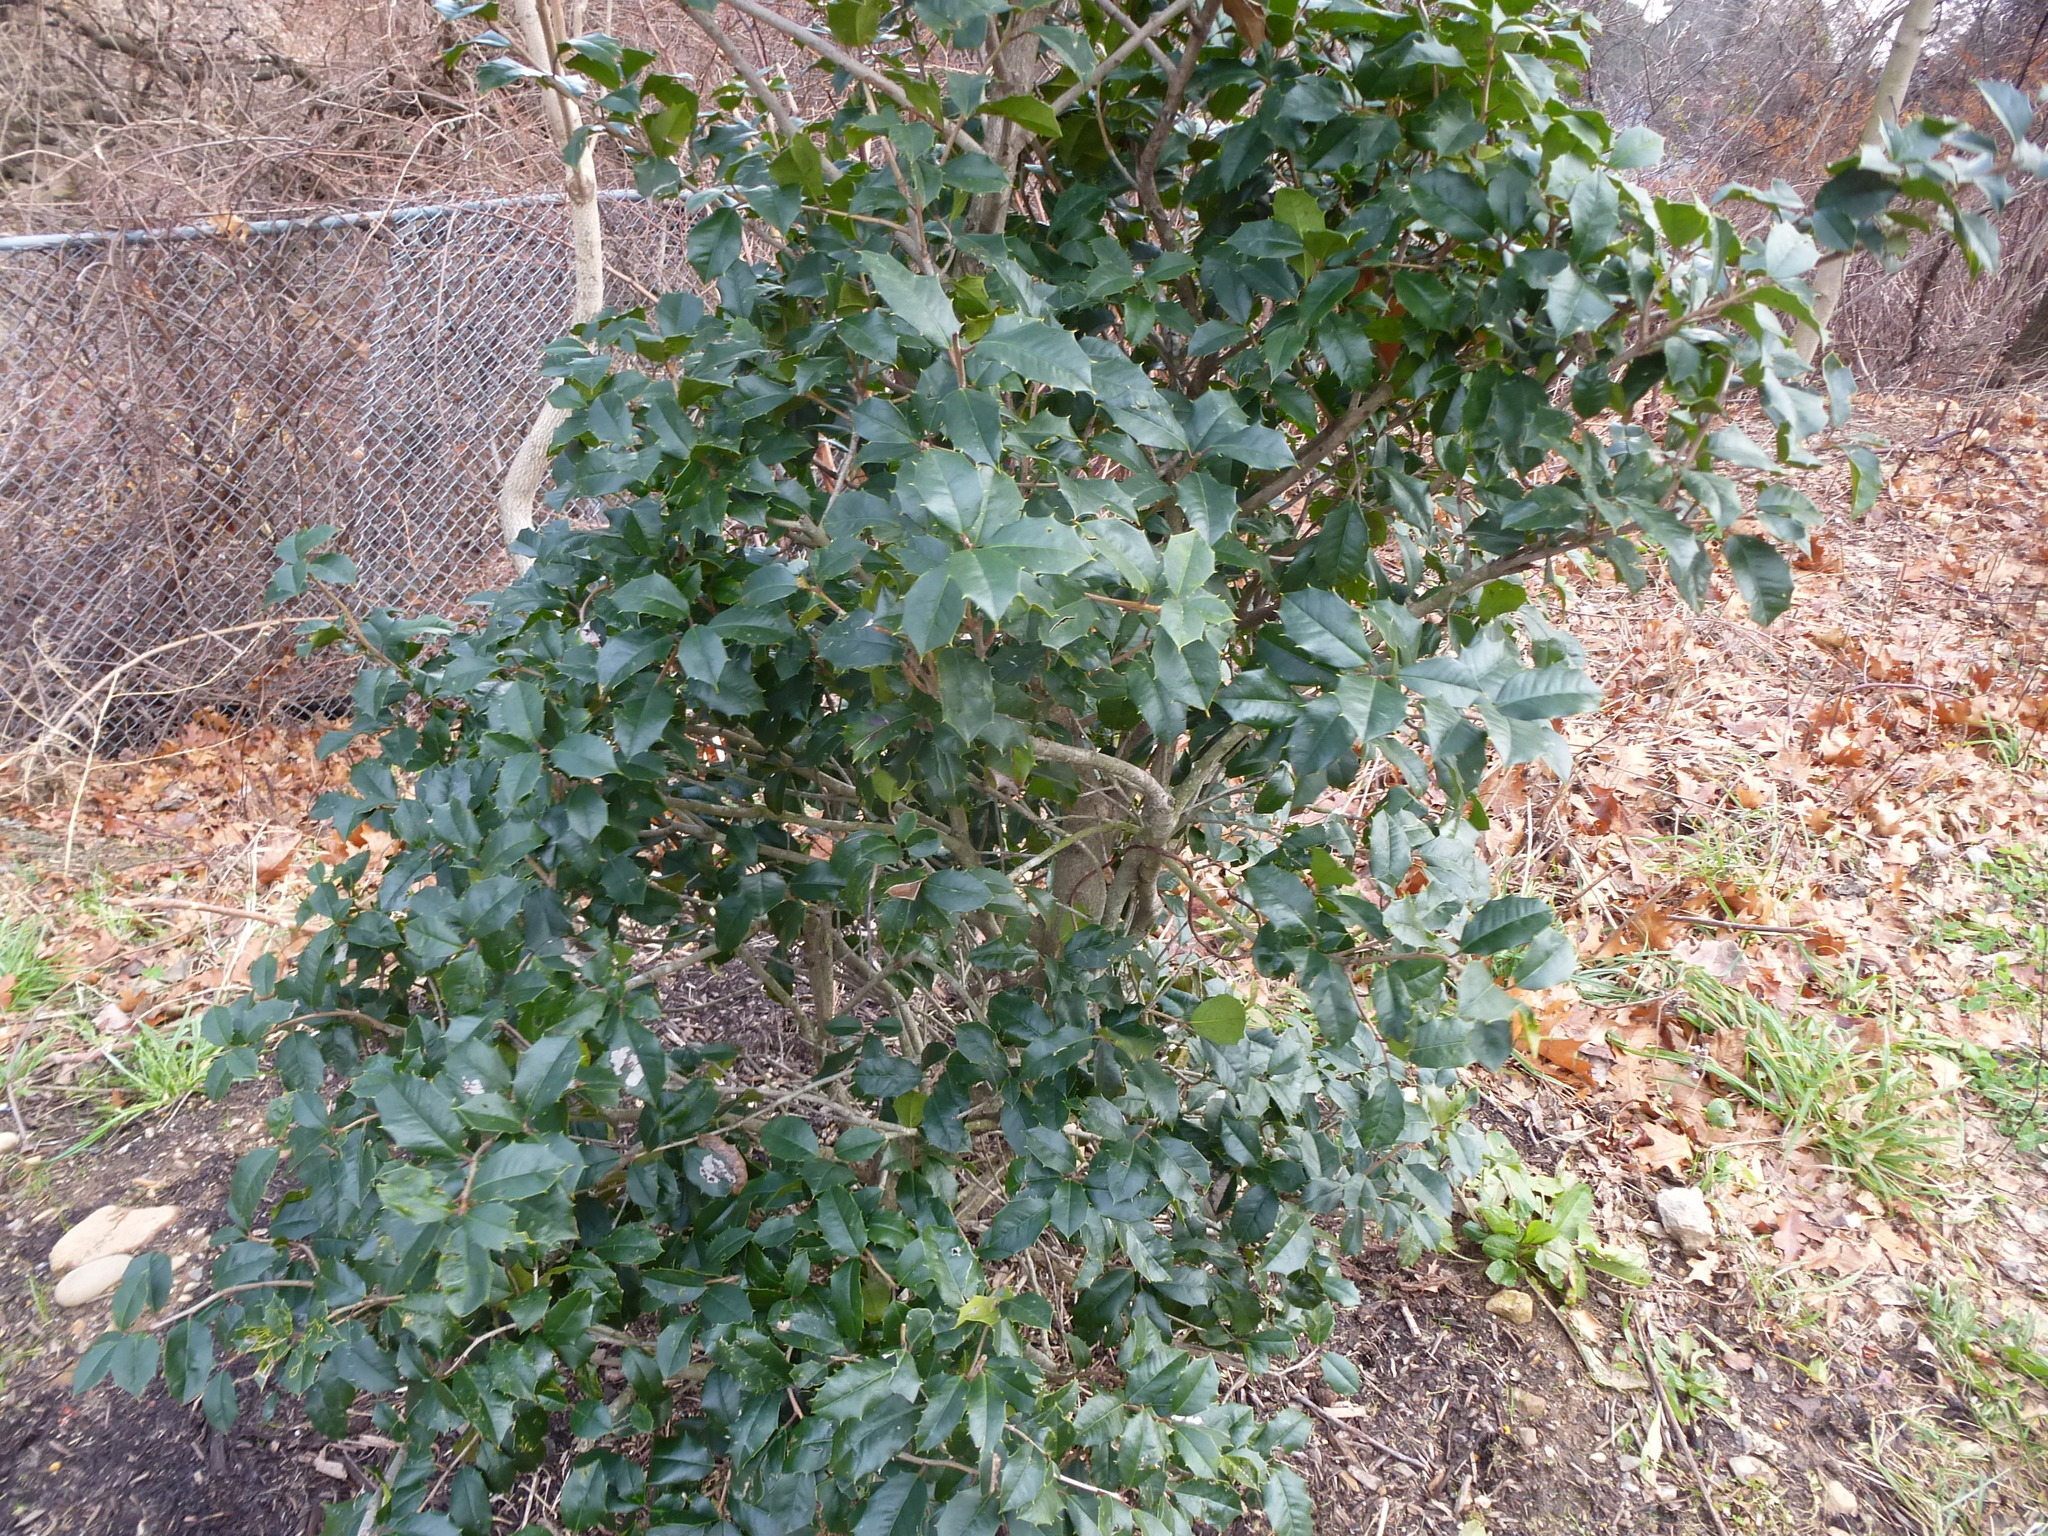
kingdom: Plantae
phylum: Tracheophyta
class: Magnoliopsida
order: Aquifoliales
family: Aquifoliaceae
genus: Ilex
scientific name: Ilex opaca
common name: American holly
